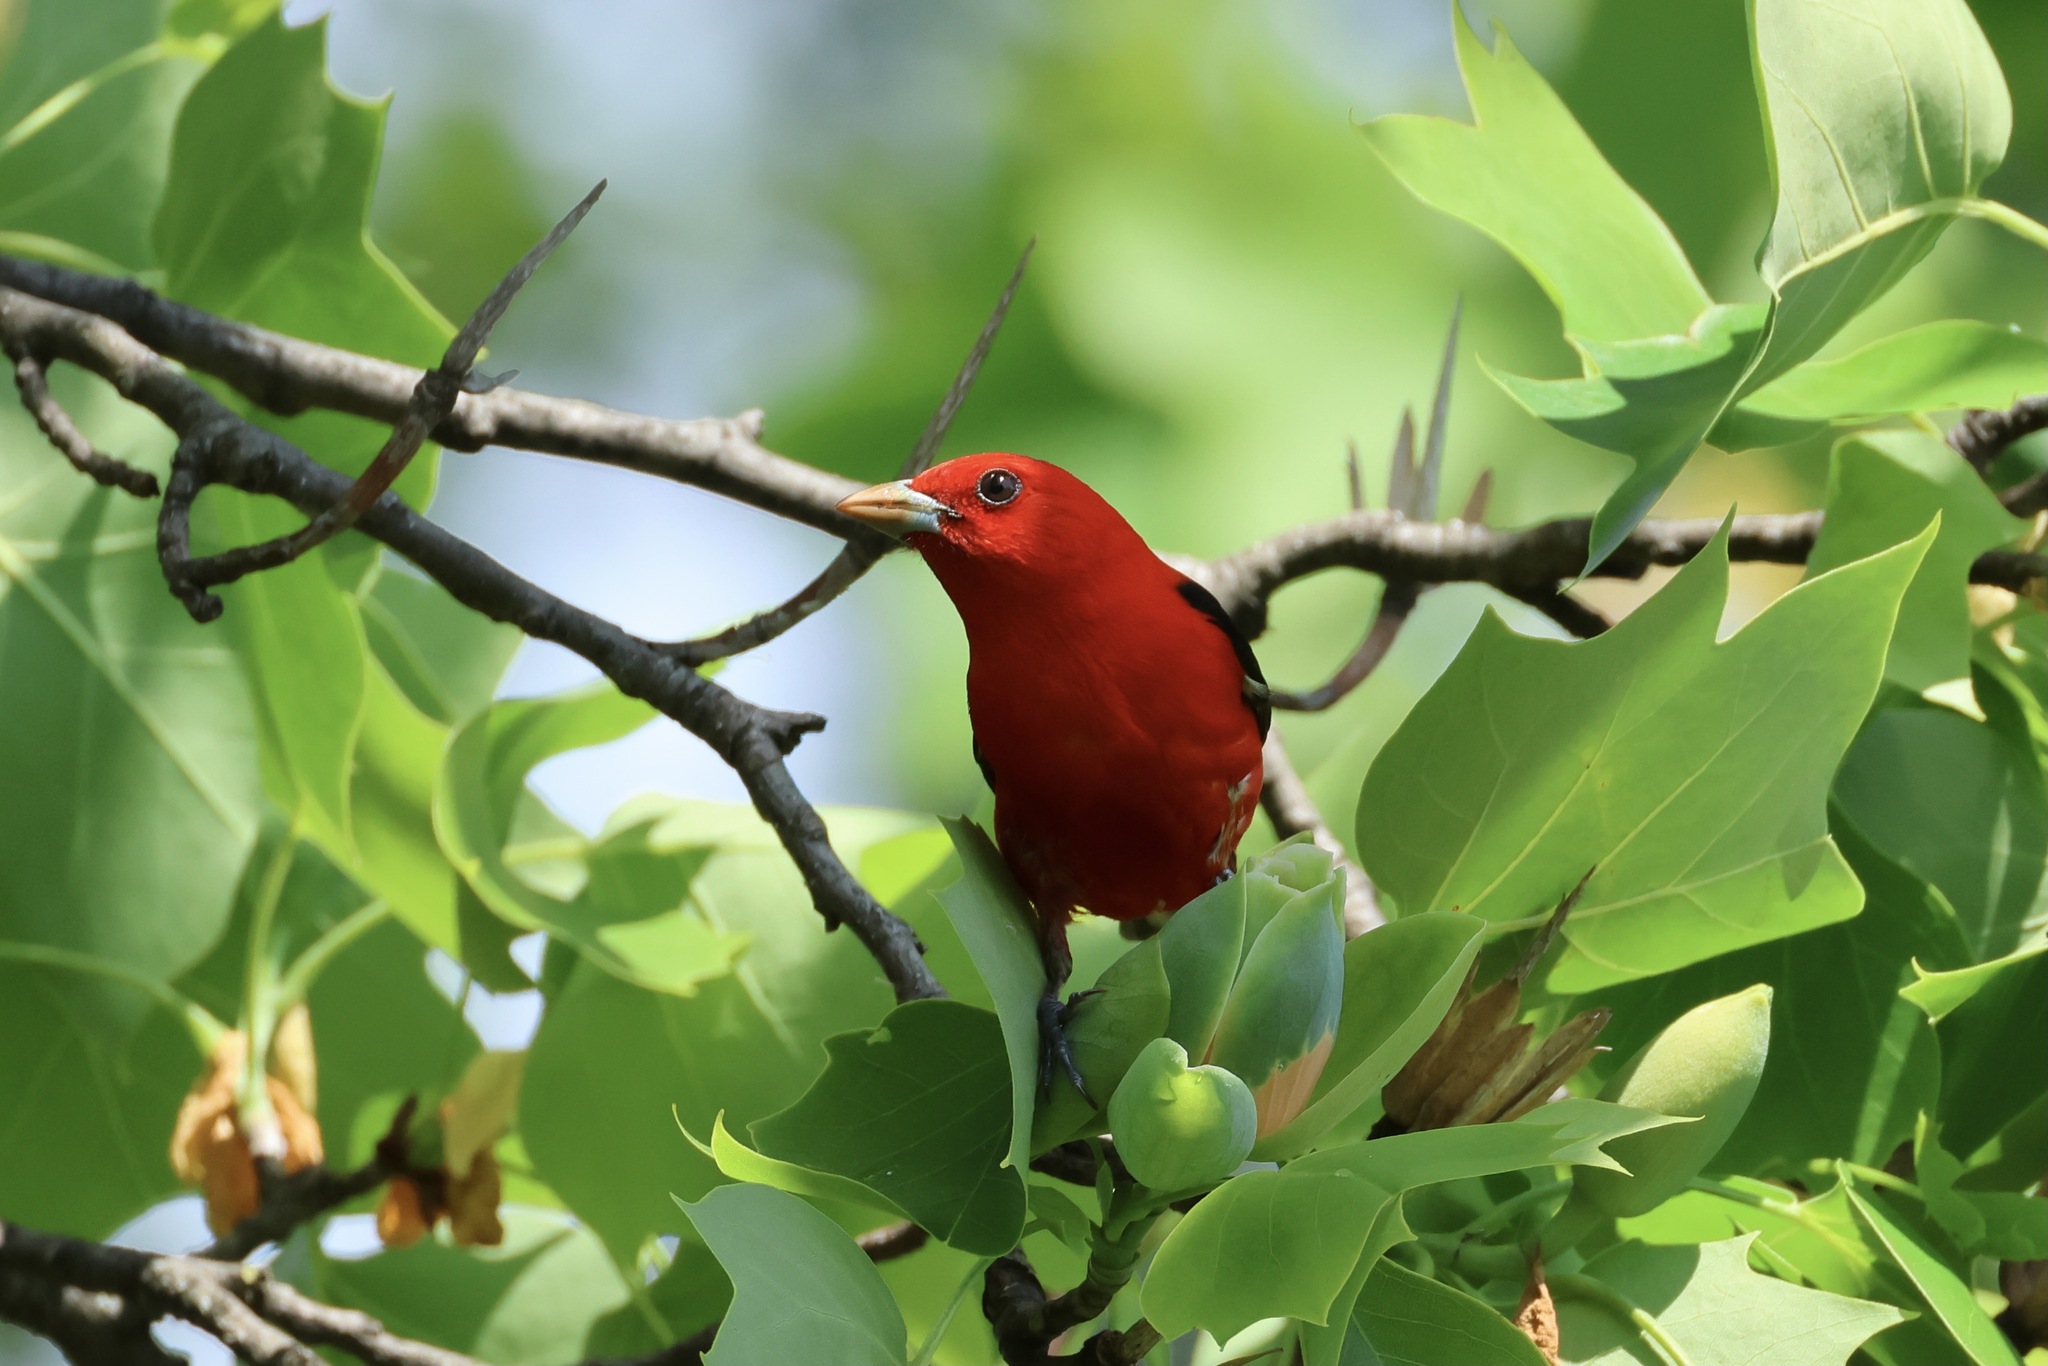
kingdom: Animalia
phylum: Chordata
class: Aves
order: Passeriformes
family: Cardinalidae
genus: Piranga
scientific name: Piranga olivacea
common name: Scarlet tanager
